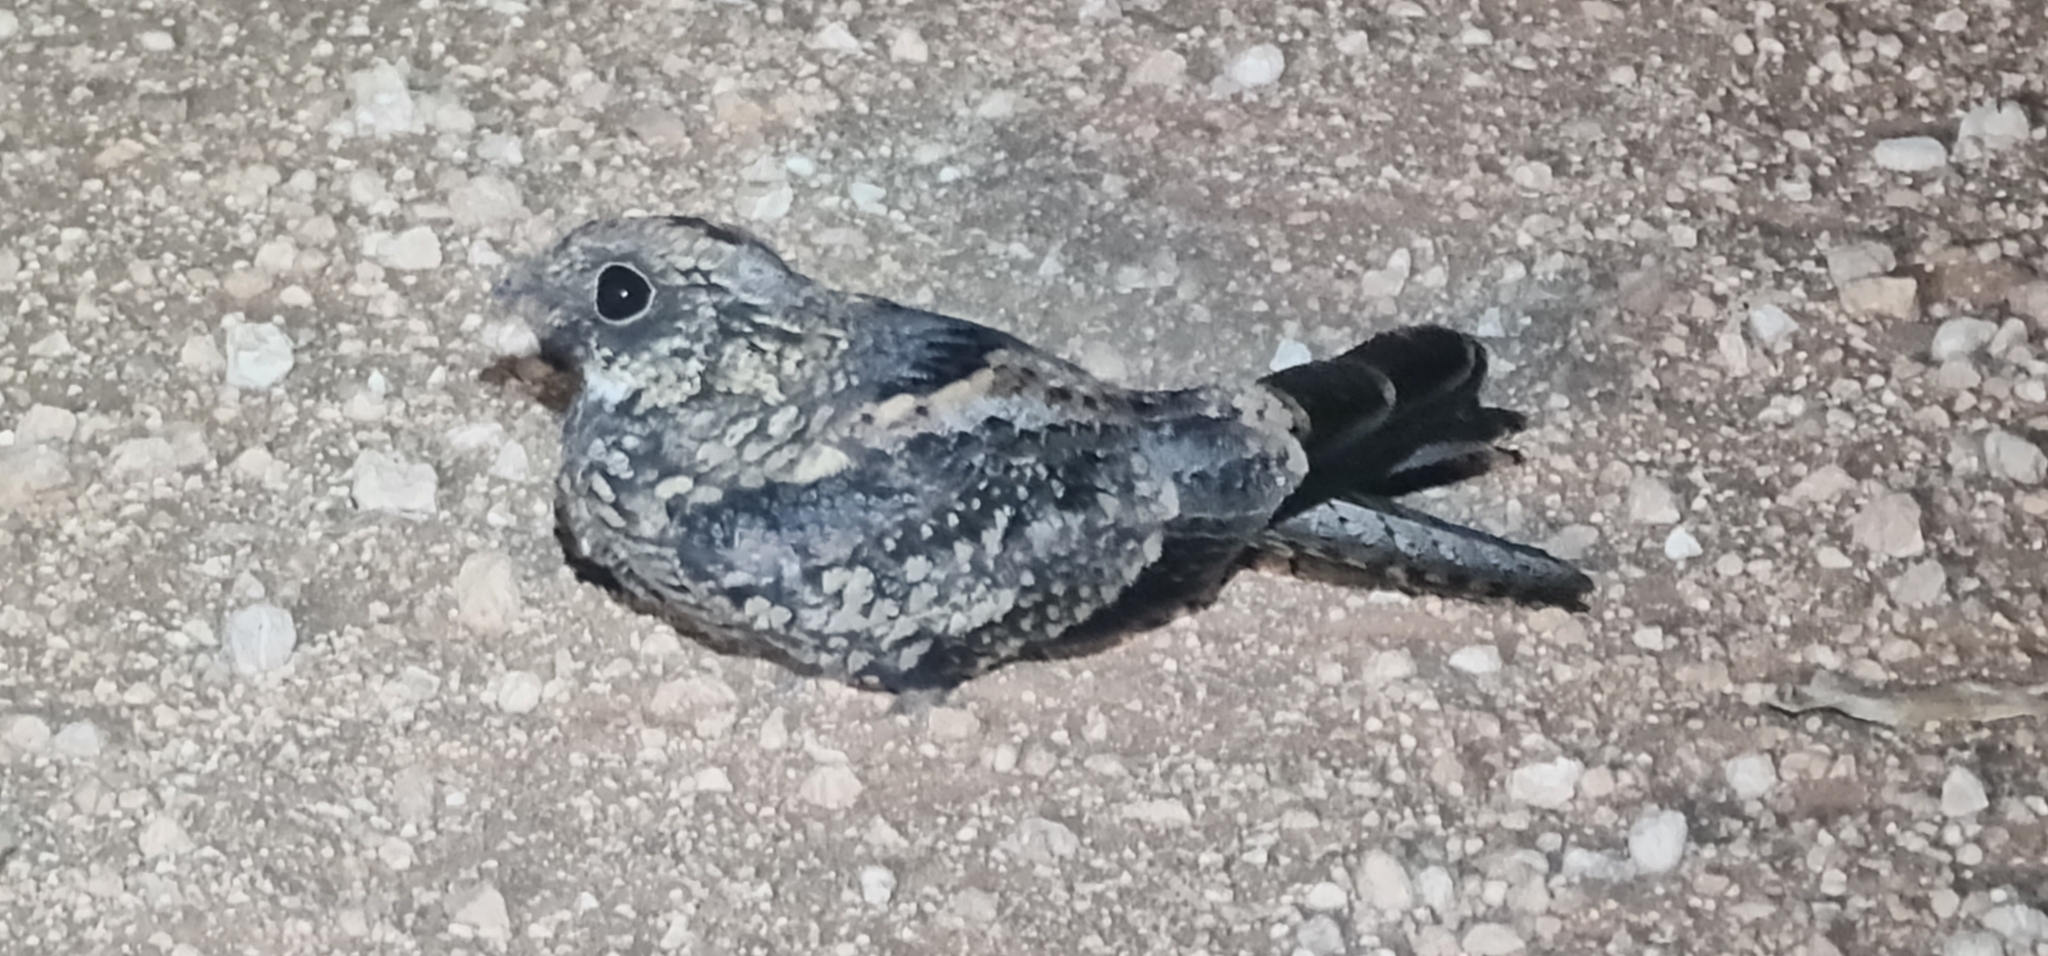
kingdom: Animalia
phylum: Chordata
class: Aves
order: Caprimulgiformes
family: Caprimulgidae
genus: Eurostopodus
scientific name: Eurostopodus argus
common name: Spotted nightjar
